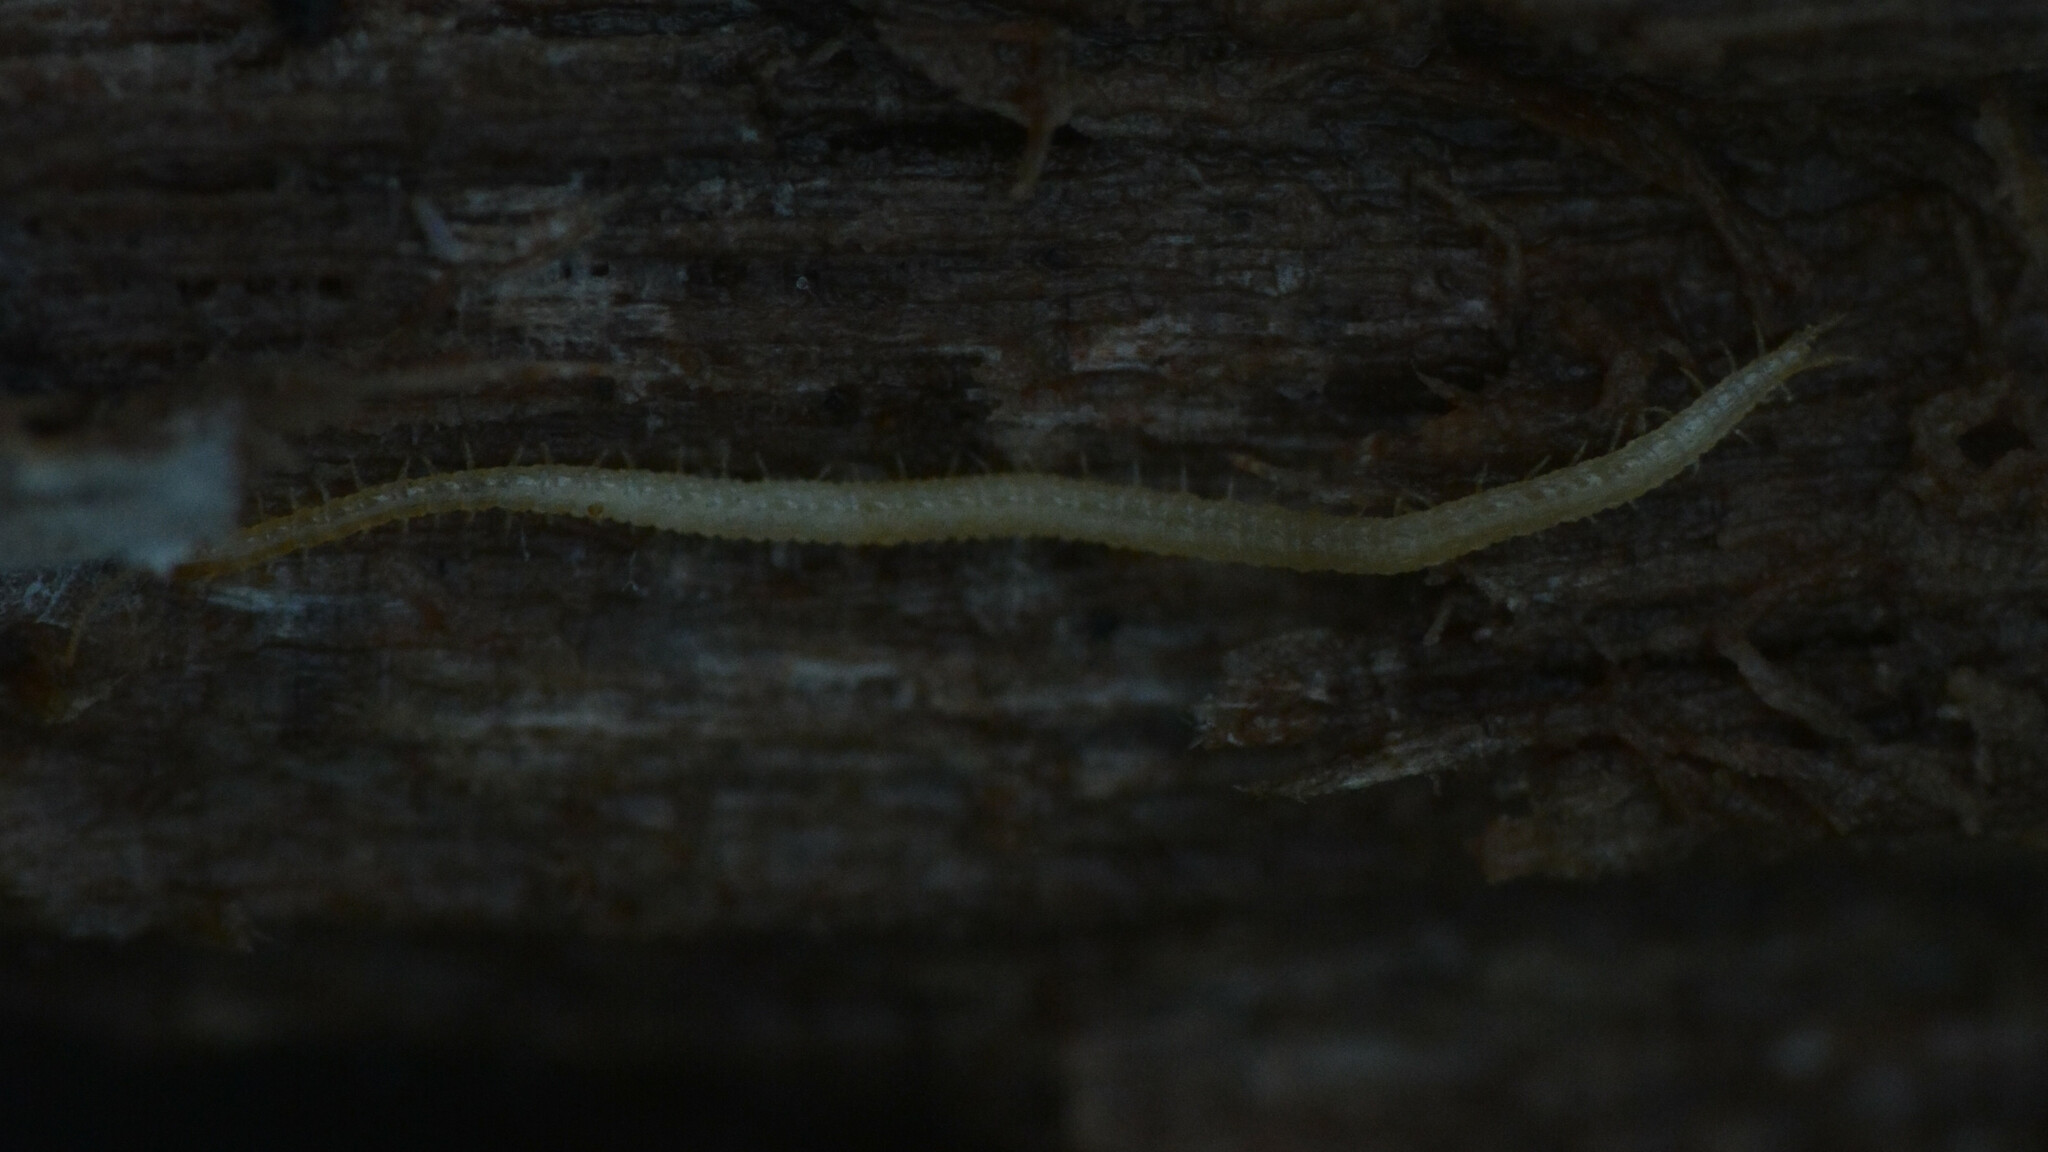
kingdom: Animalia
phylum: Arthropoda
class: Chilopoda
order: Geophilomorpha
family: Schendylidae
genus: Schendyla
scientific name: Schendyla nemorensis
